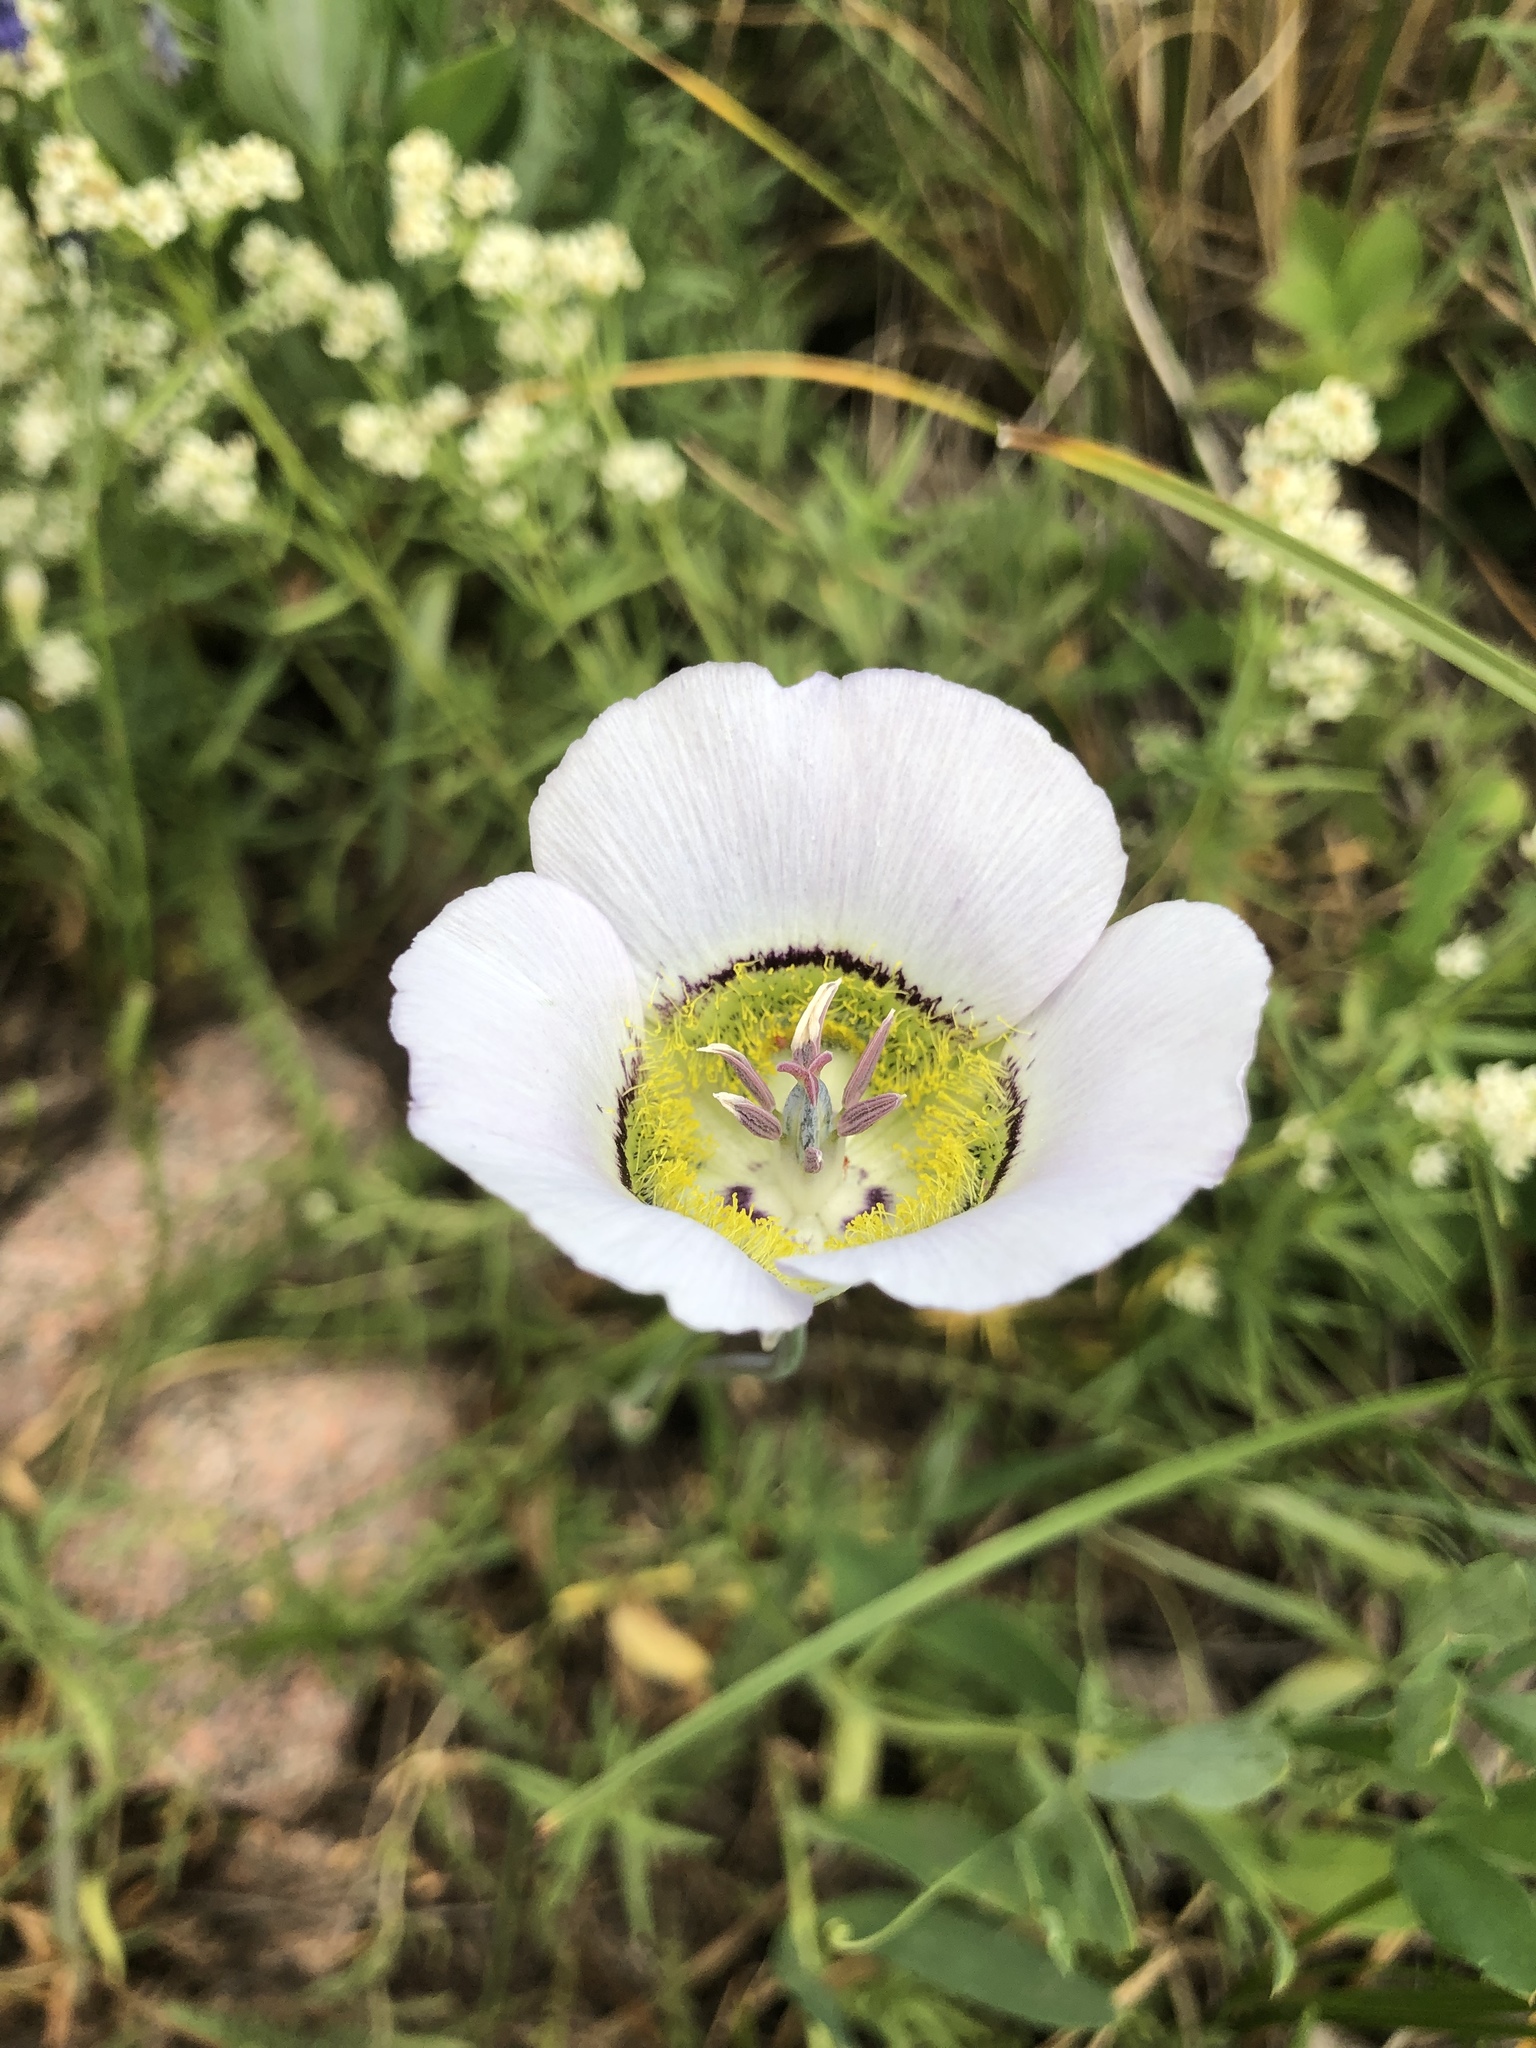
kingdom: Plantae
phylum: Tracheophyta
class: Liliopsida
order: Liliales
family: Liliaceae
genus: Calochortus
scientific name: Calochortus gunnisonii
